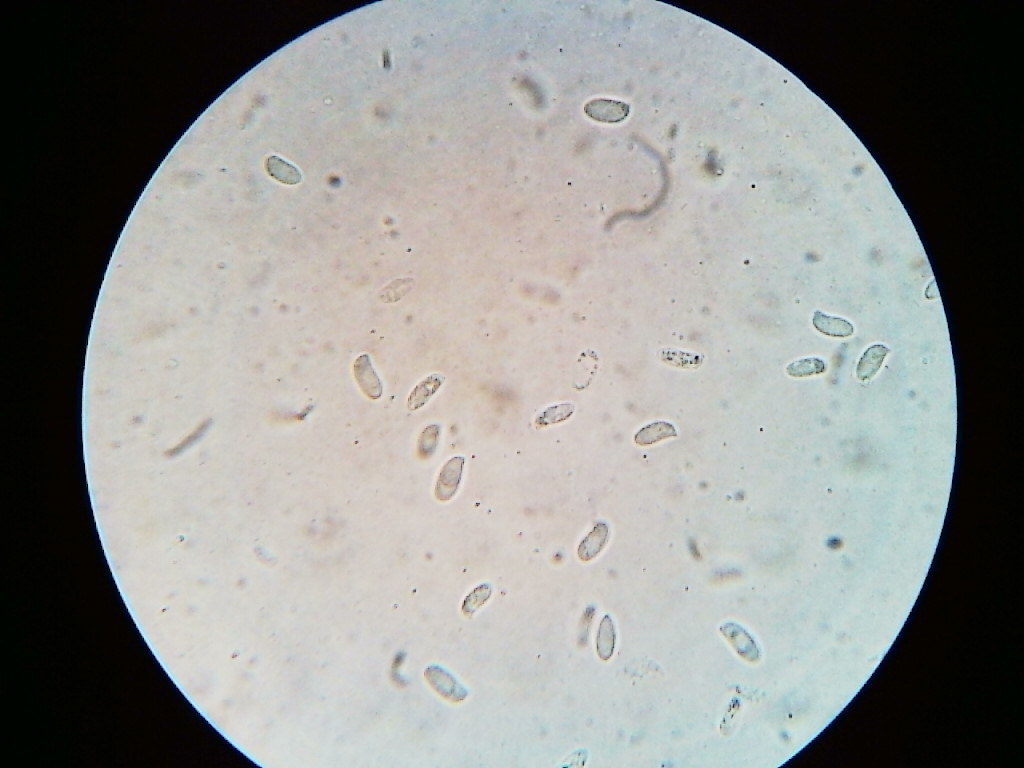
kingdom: Fungi
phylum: Basidiomycota
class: Agaricomycetes
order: Agaricales
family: Pleurotaceae
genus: Pleurotus
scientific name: Pleurotus ostreatus
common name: Oyster mushroom
